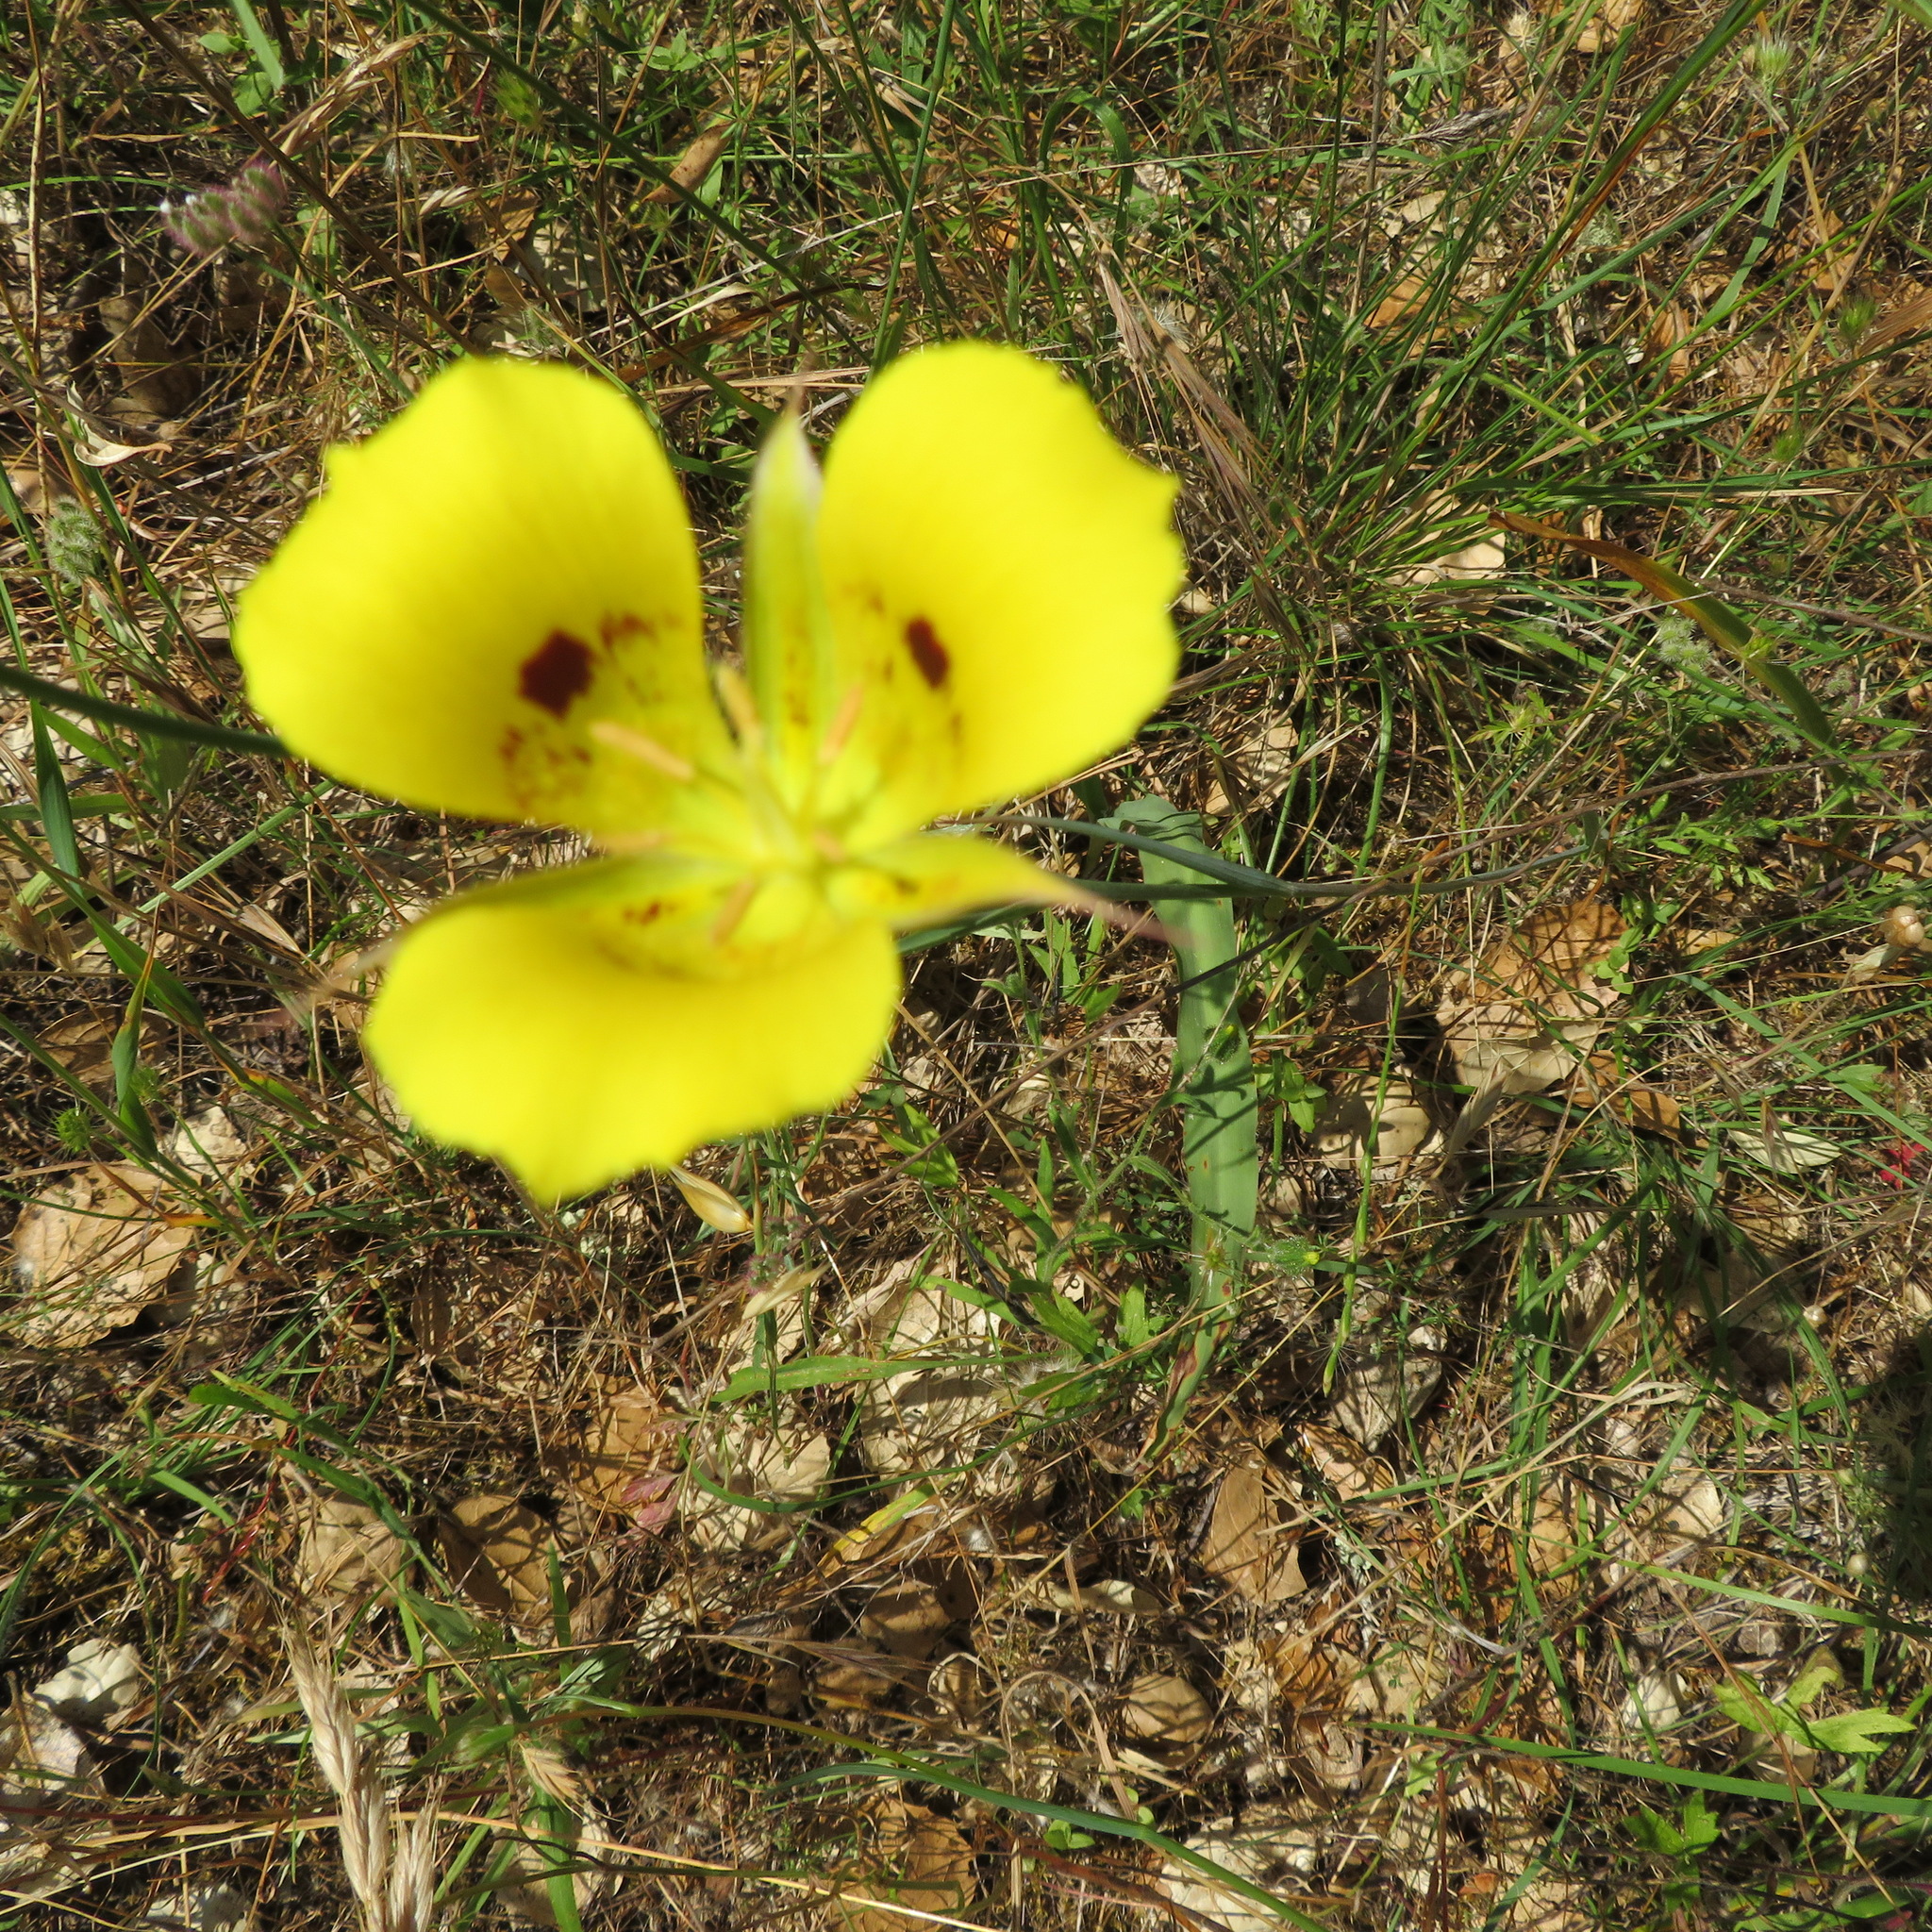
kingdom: Plantae
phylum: Tracheophyta
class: Liliopsida
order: Liliales
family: Liliaceae
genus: Calochortus
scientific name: Calochortus luteus
